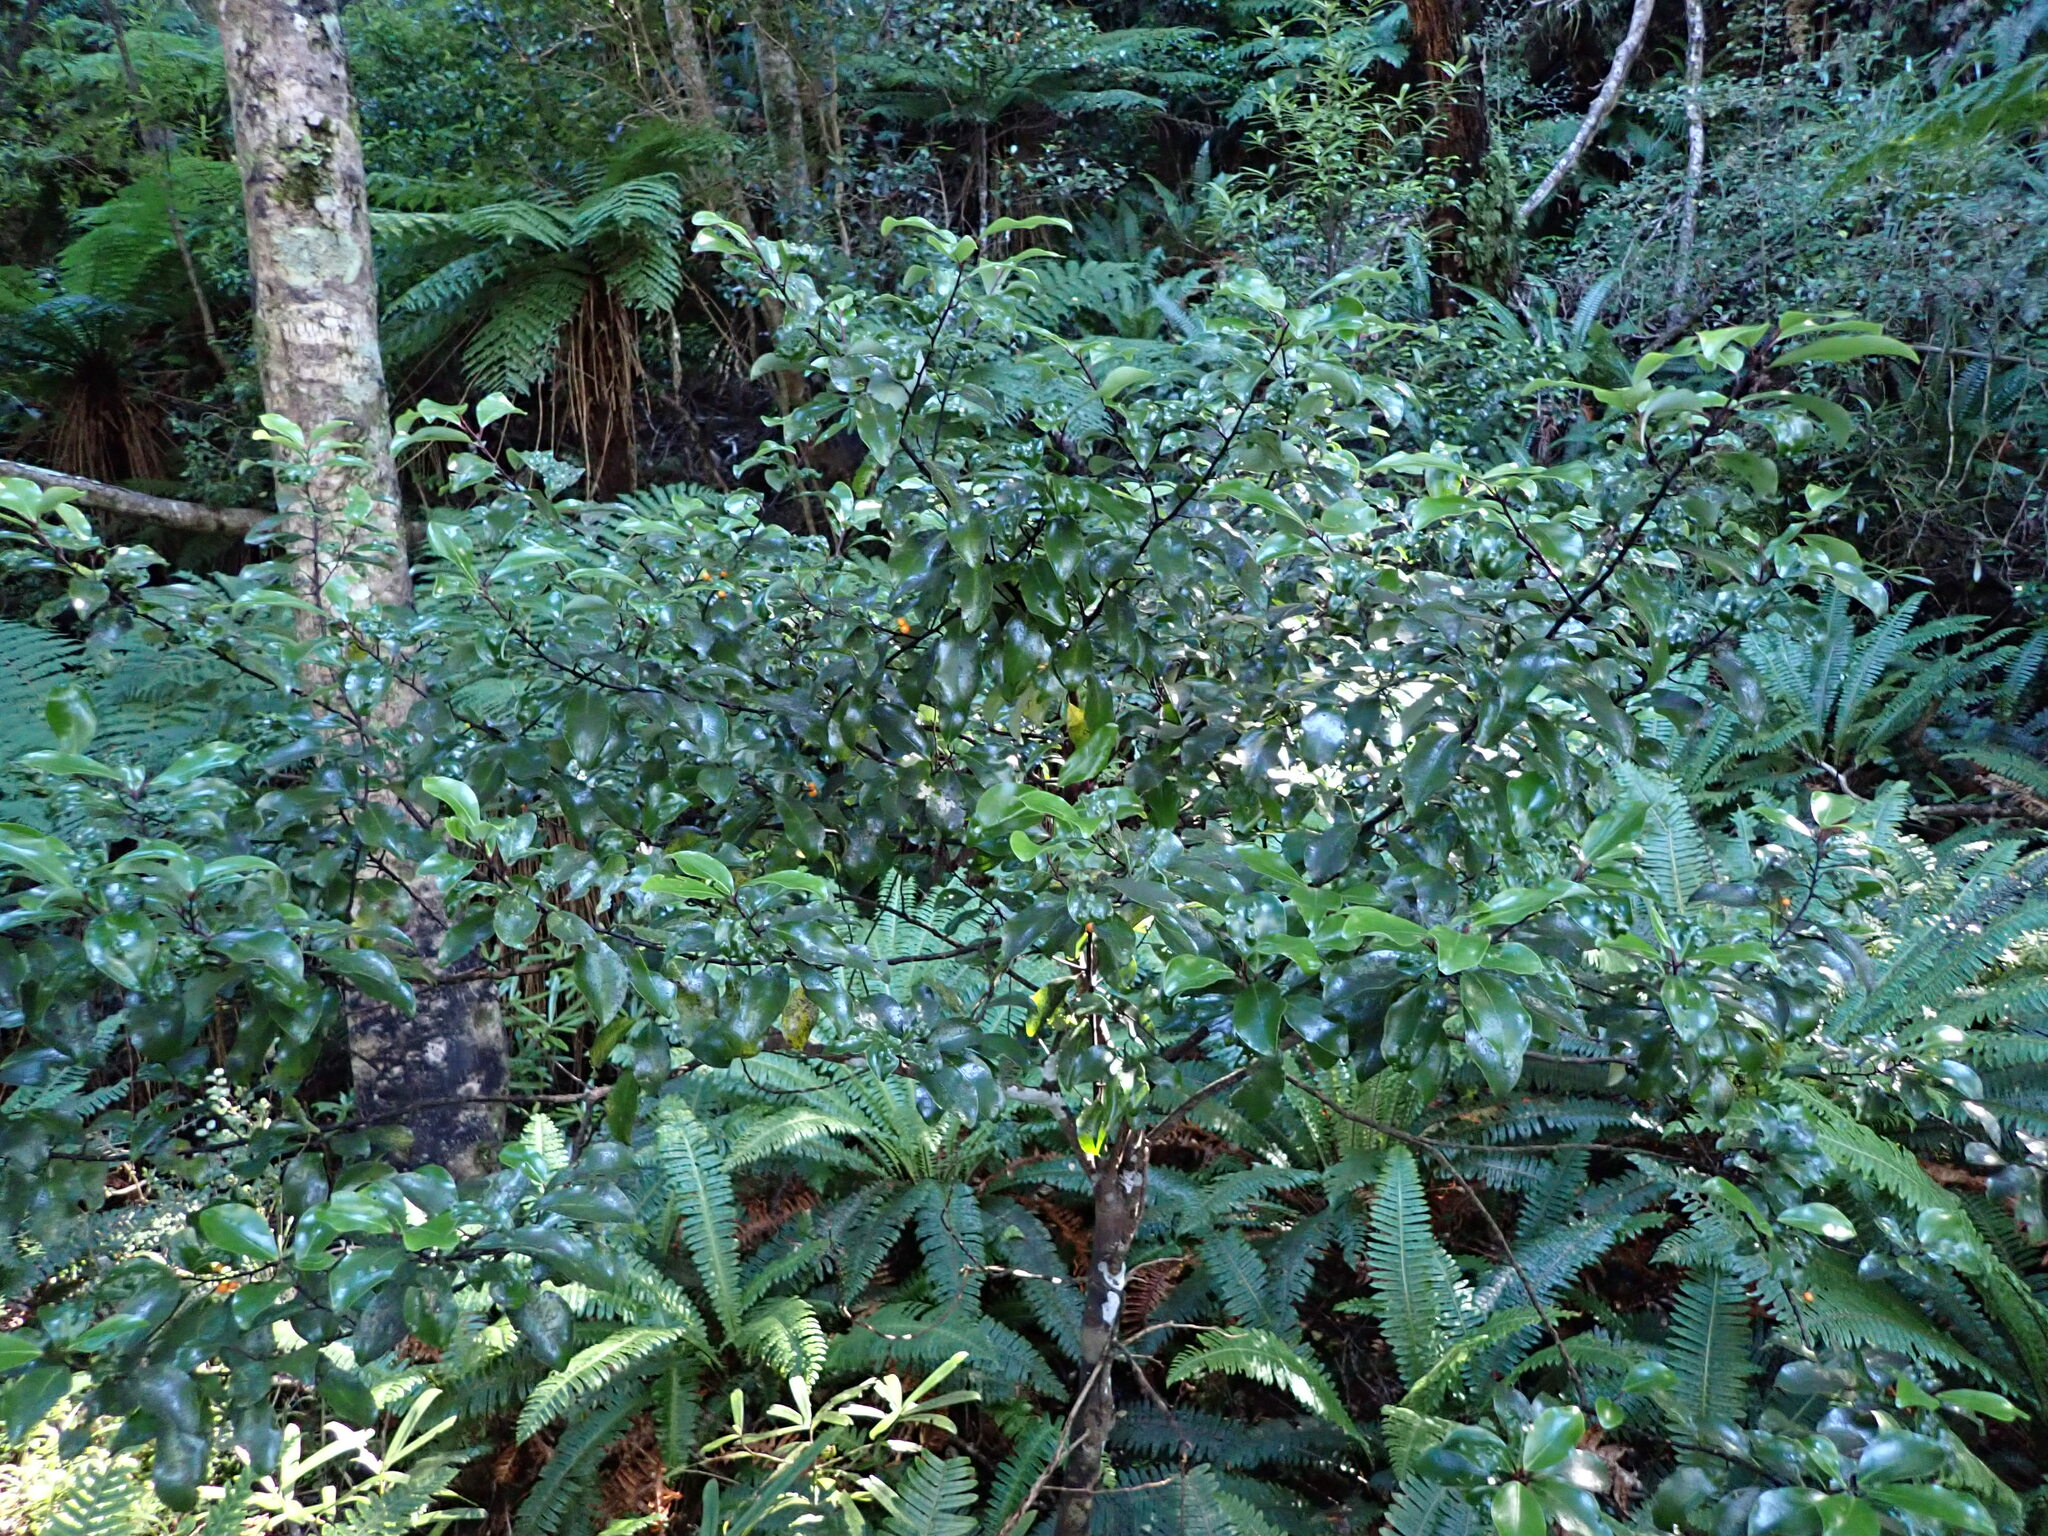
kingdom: Plantae
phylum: Tracheophyta
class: Magnoliopsida
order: Canellales
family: Winteraceae
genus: Pseudowintera
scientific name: Pseudowintera axillaris
